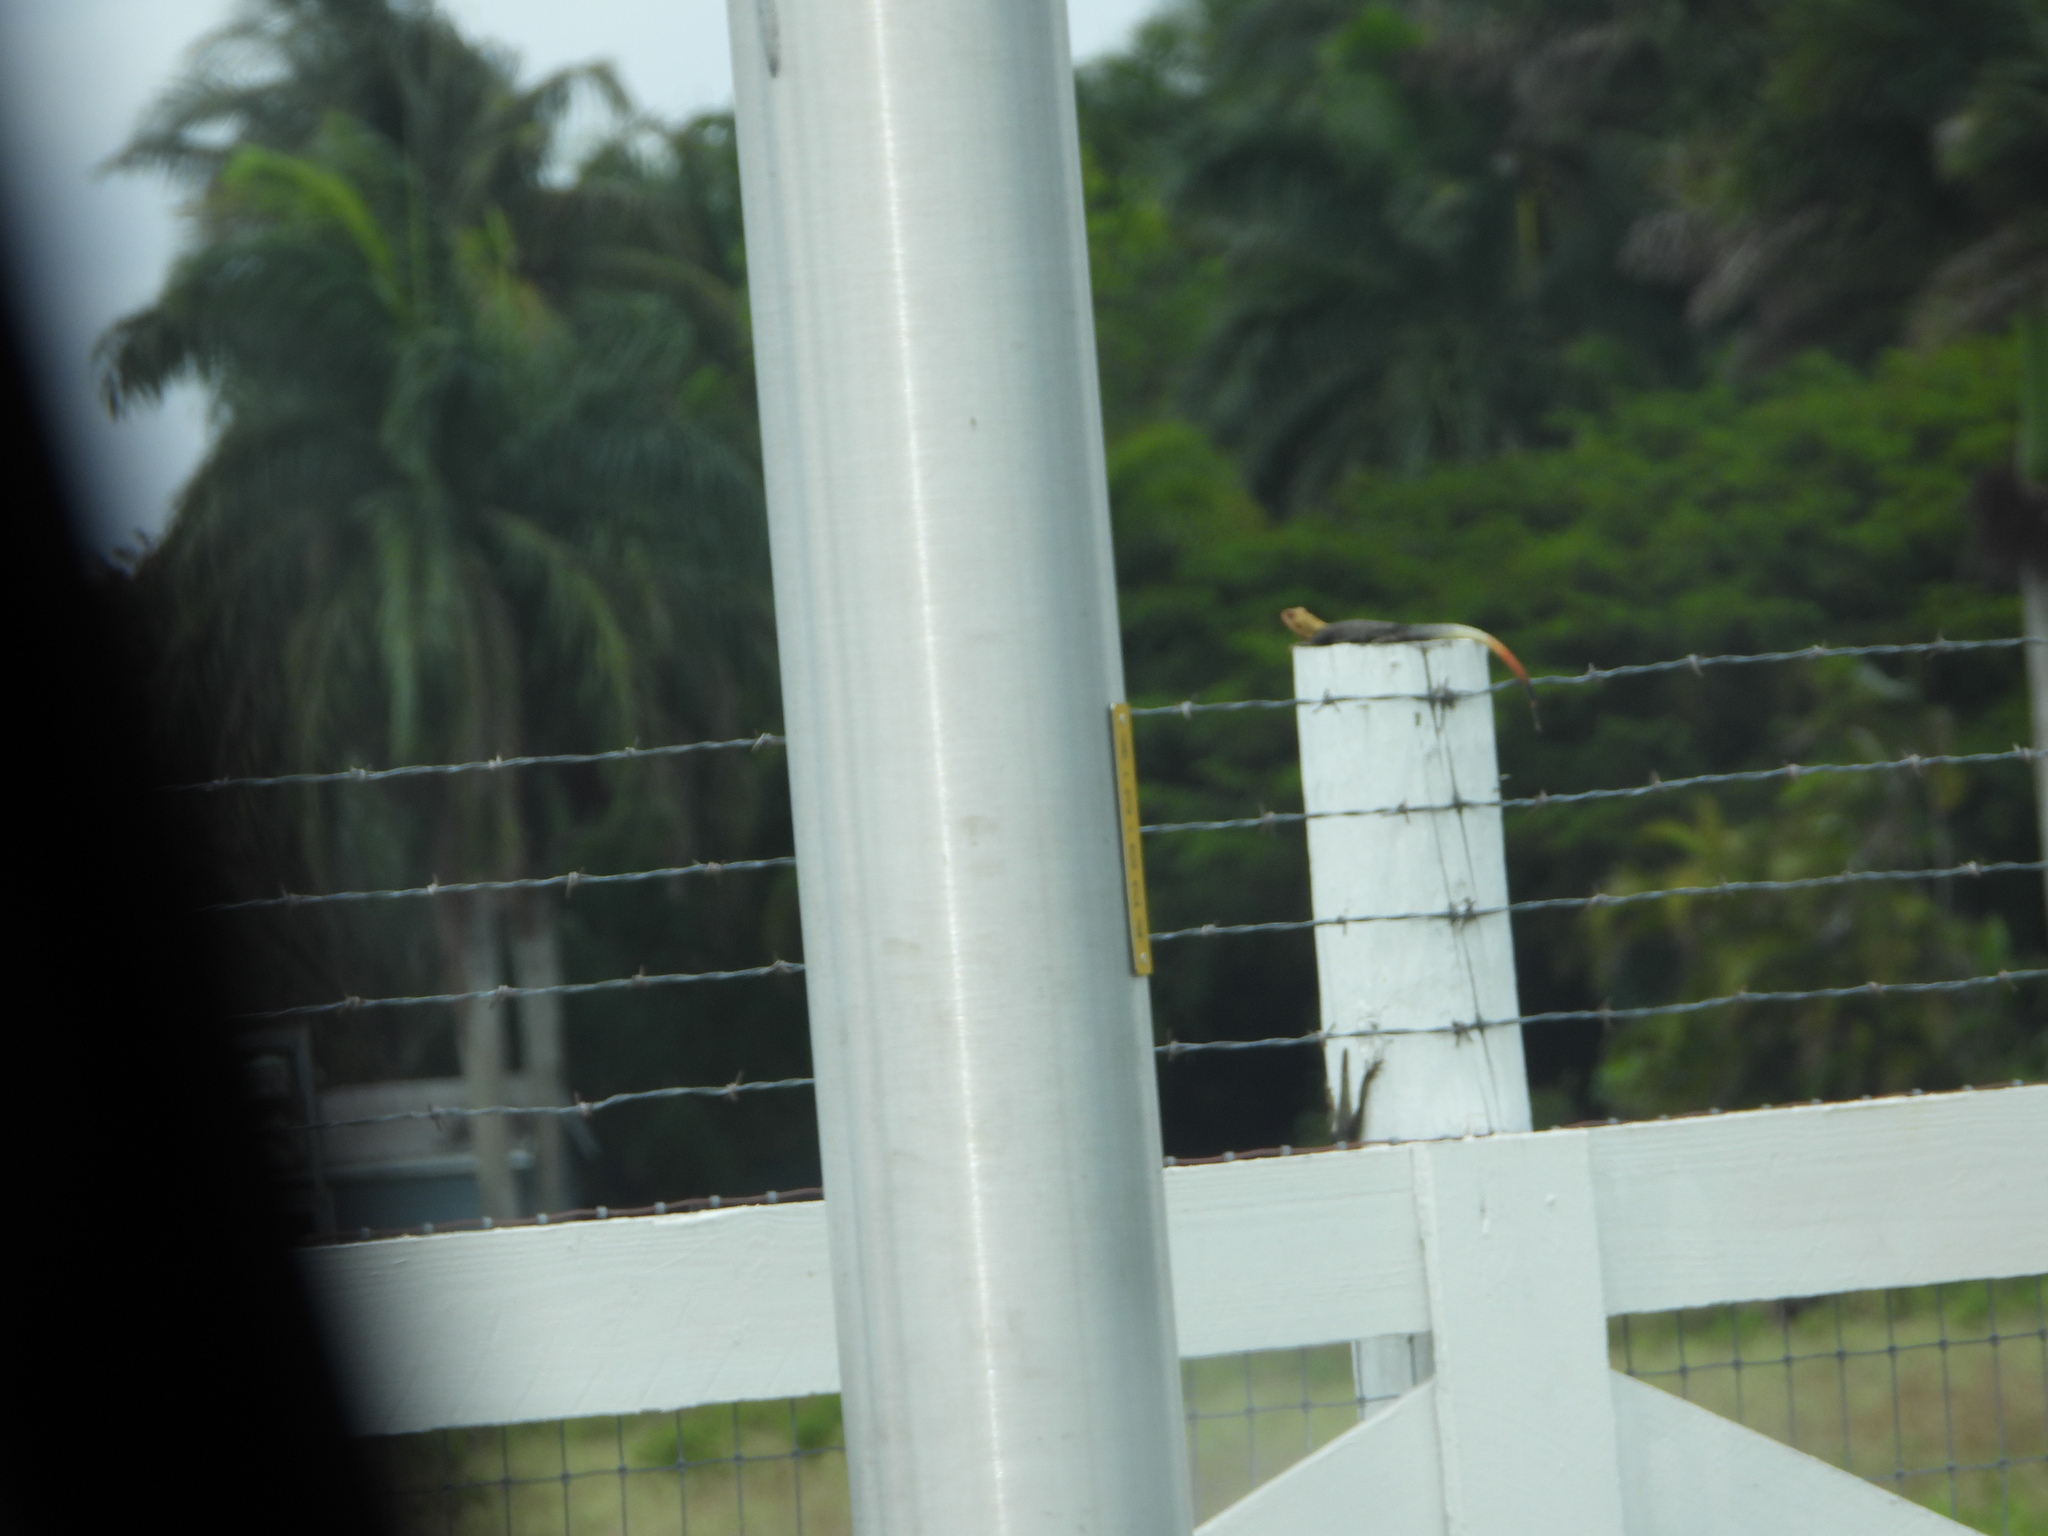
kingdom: Animalia
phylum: Chordata
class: Squamata
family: Agamidae
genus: Agama
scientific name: Agama picticauda
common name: Red-headed agama
